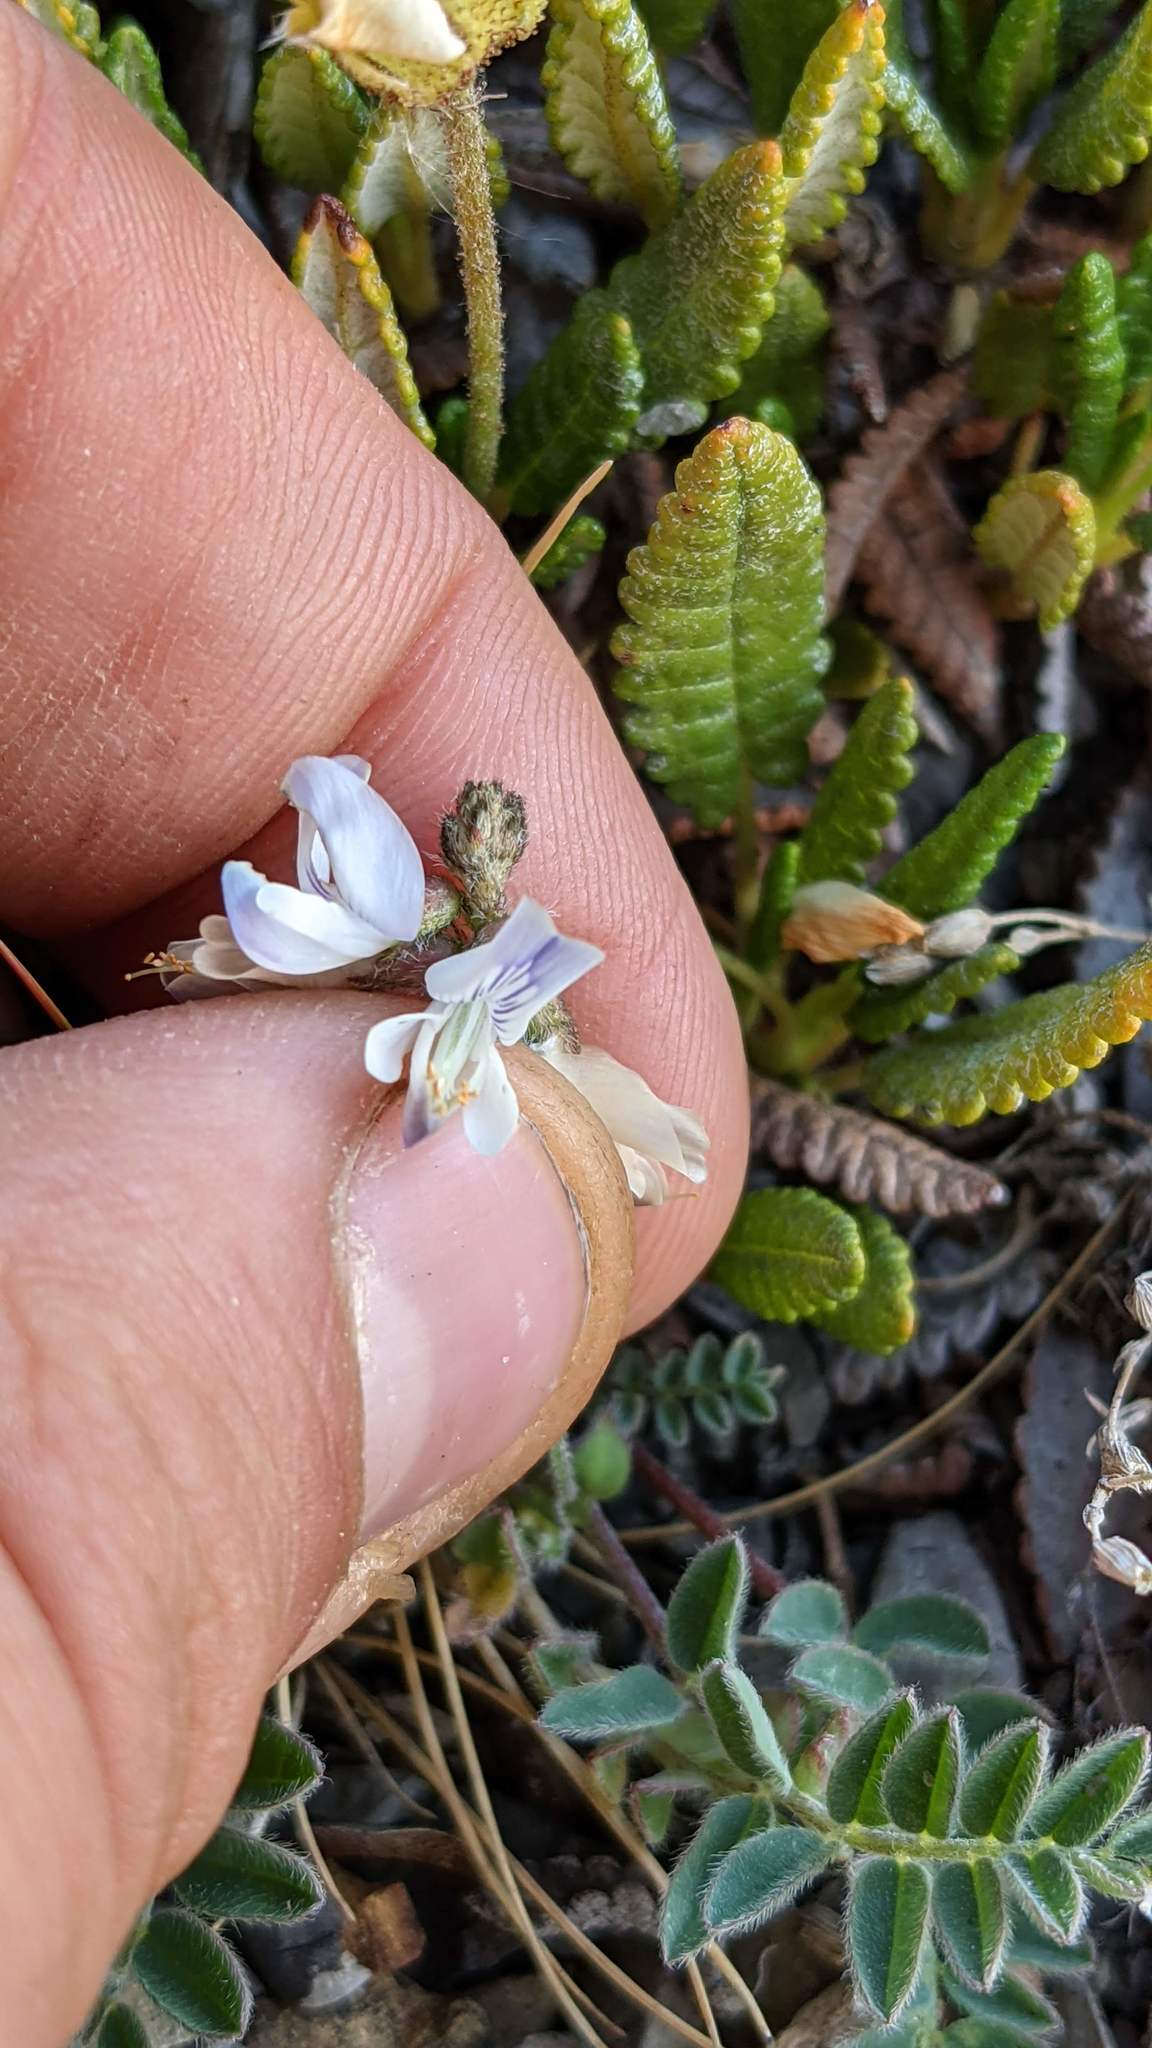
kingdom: Plantae
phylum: Tracheophyta
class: Magnoliopsida
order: Fabales
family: Fabaceae
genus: Astragalus
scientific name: Astragalus alpinus
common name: Alpine milk-vetch
